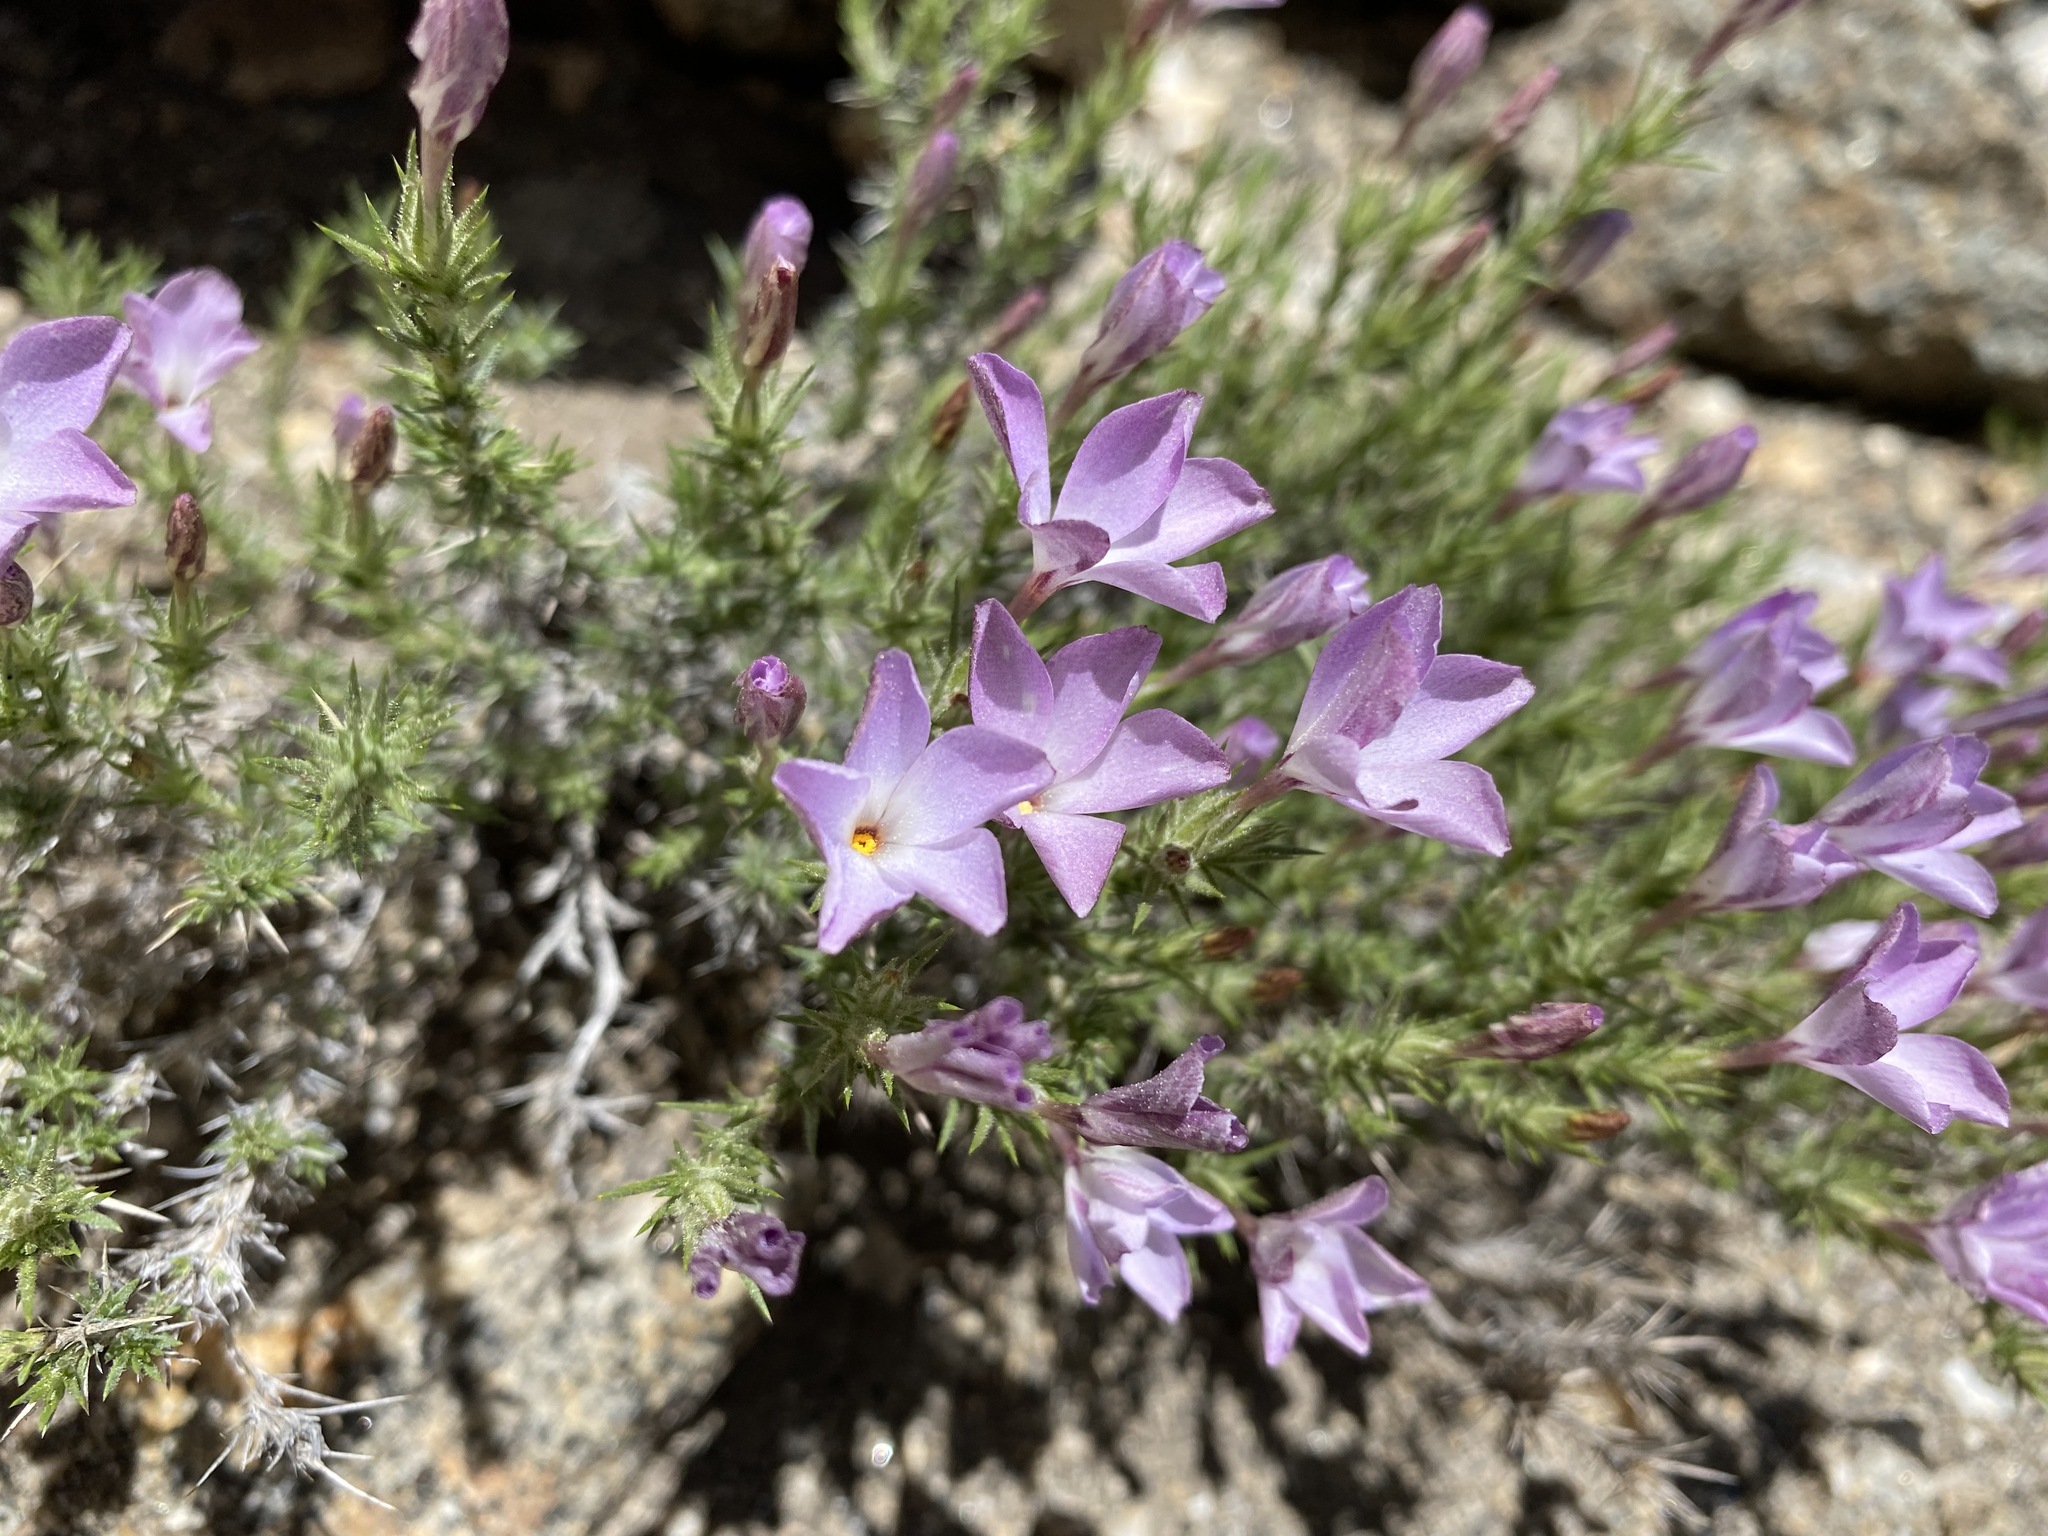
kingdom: Plantae
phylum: Tracheophyta
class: Magnoliopsida
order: Ericales
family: Polemoniaceae
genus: Linanthus
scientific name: Linanthus pungens
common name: Granite prickly phlox
